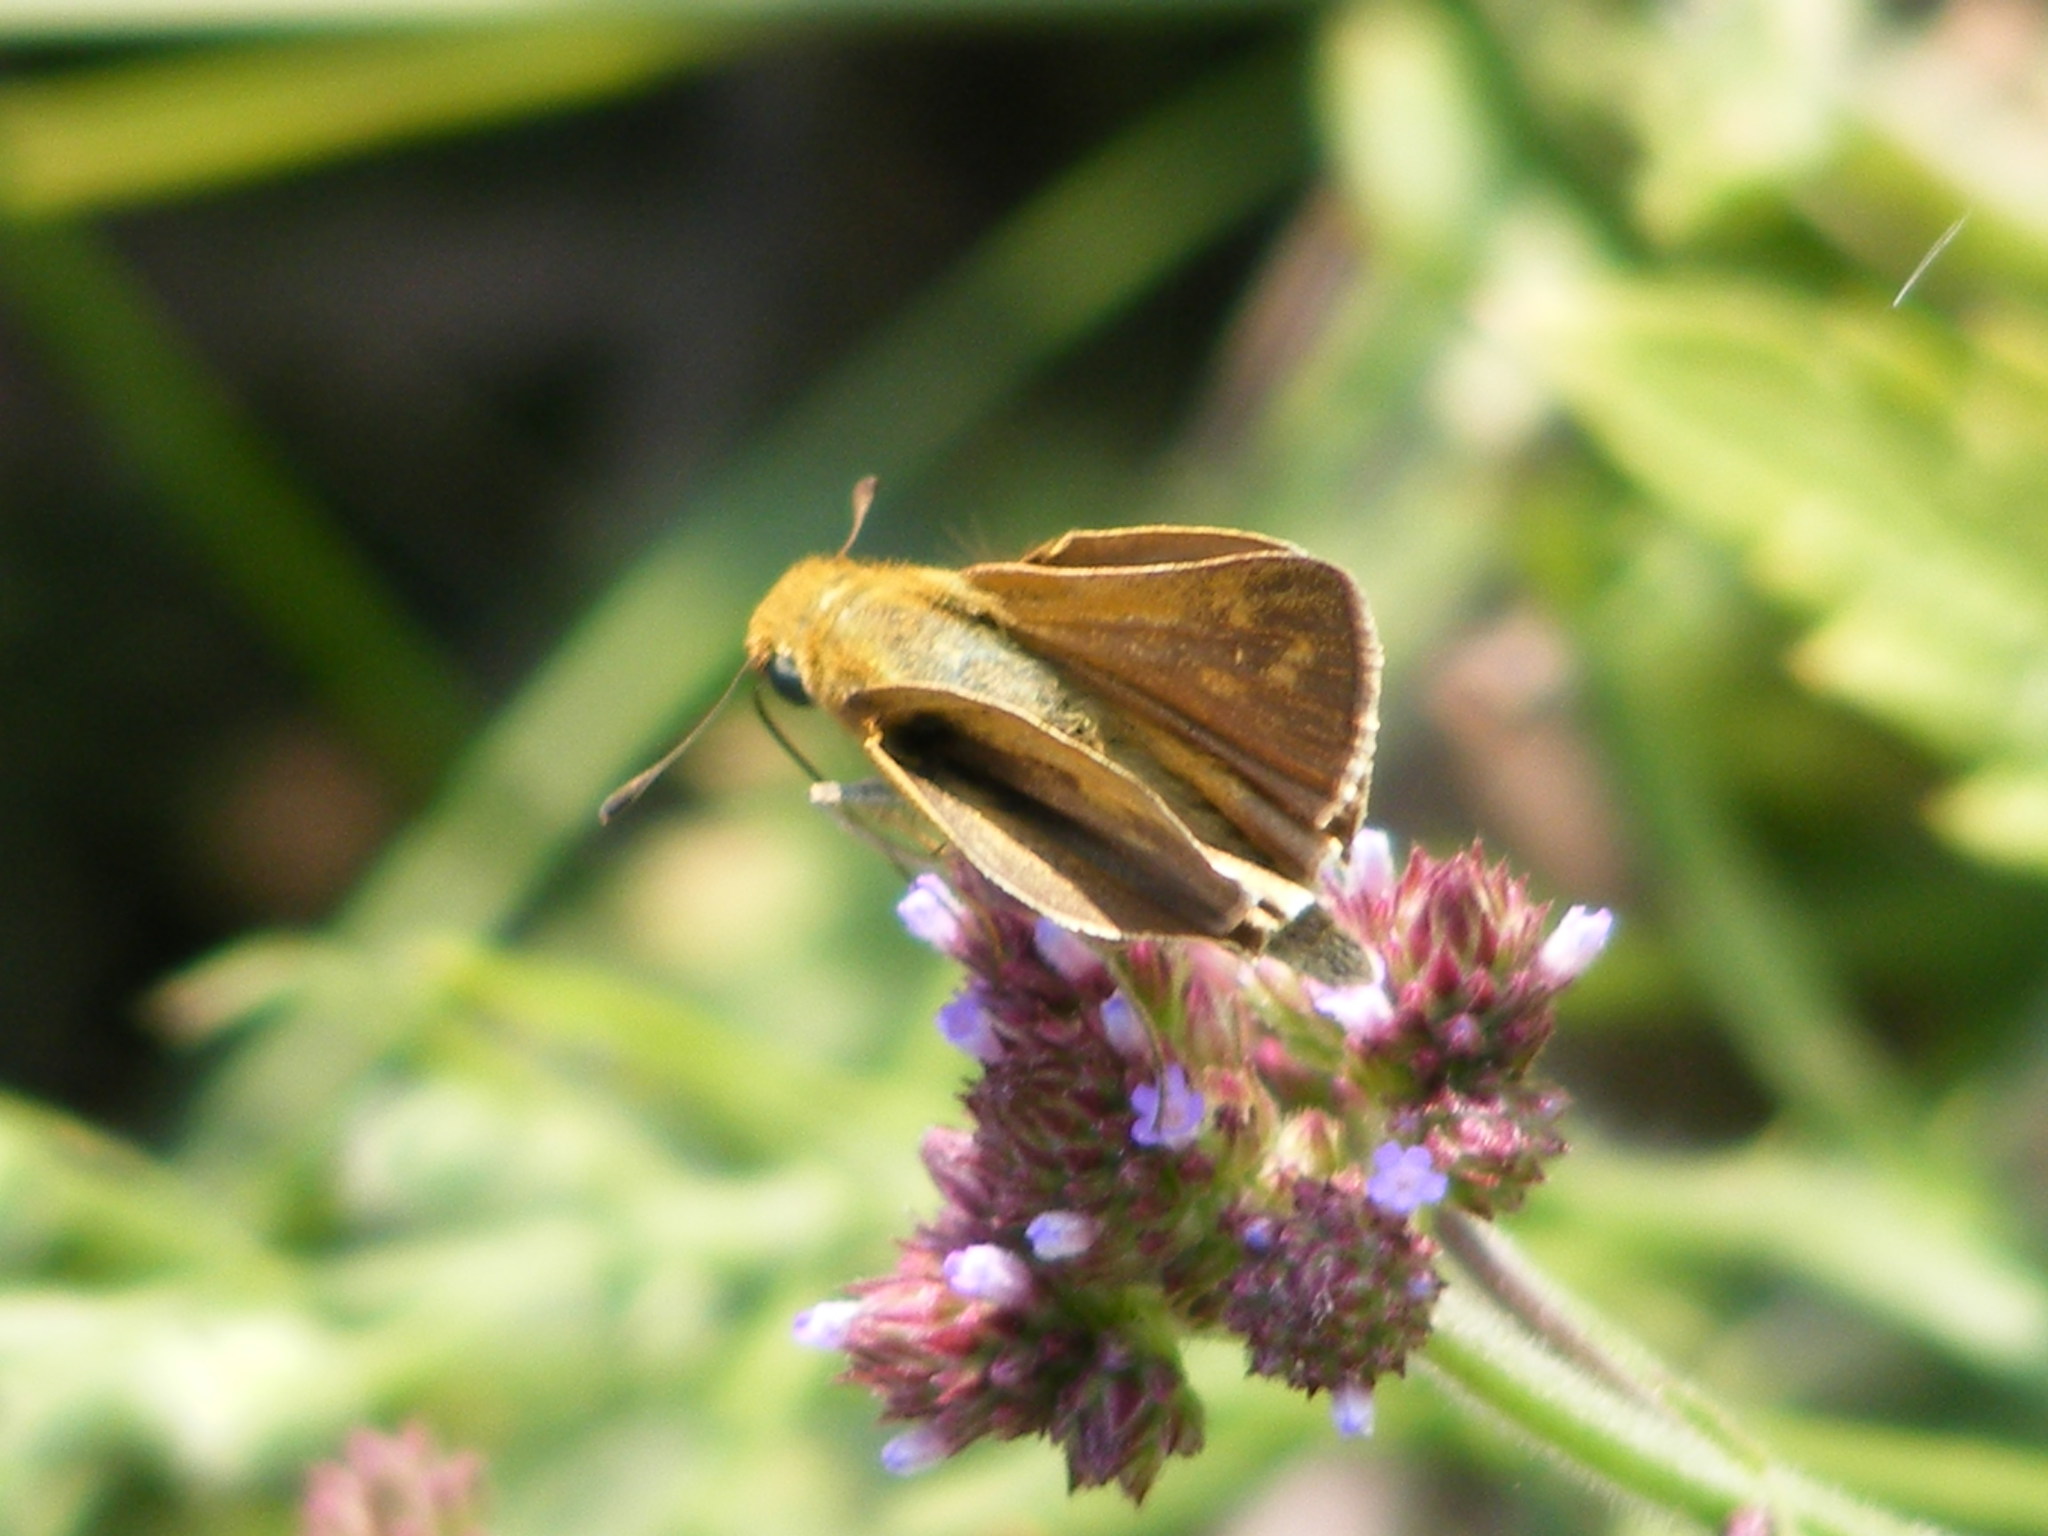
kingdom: Animalia
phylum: Arthropoda
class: Insecta
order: Lepidoptera
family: Hesperiidae
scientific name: Hesperiidae
